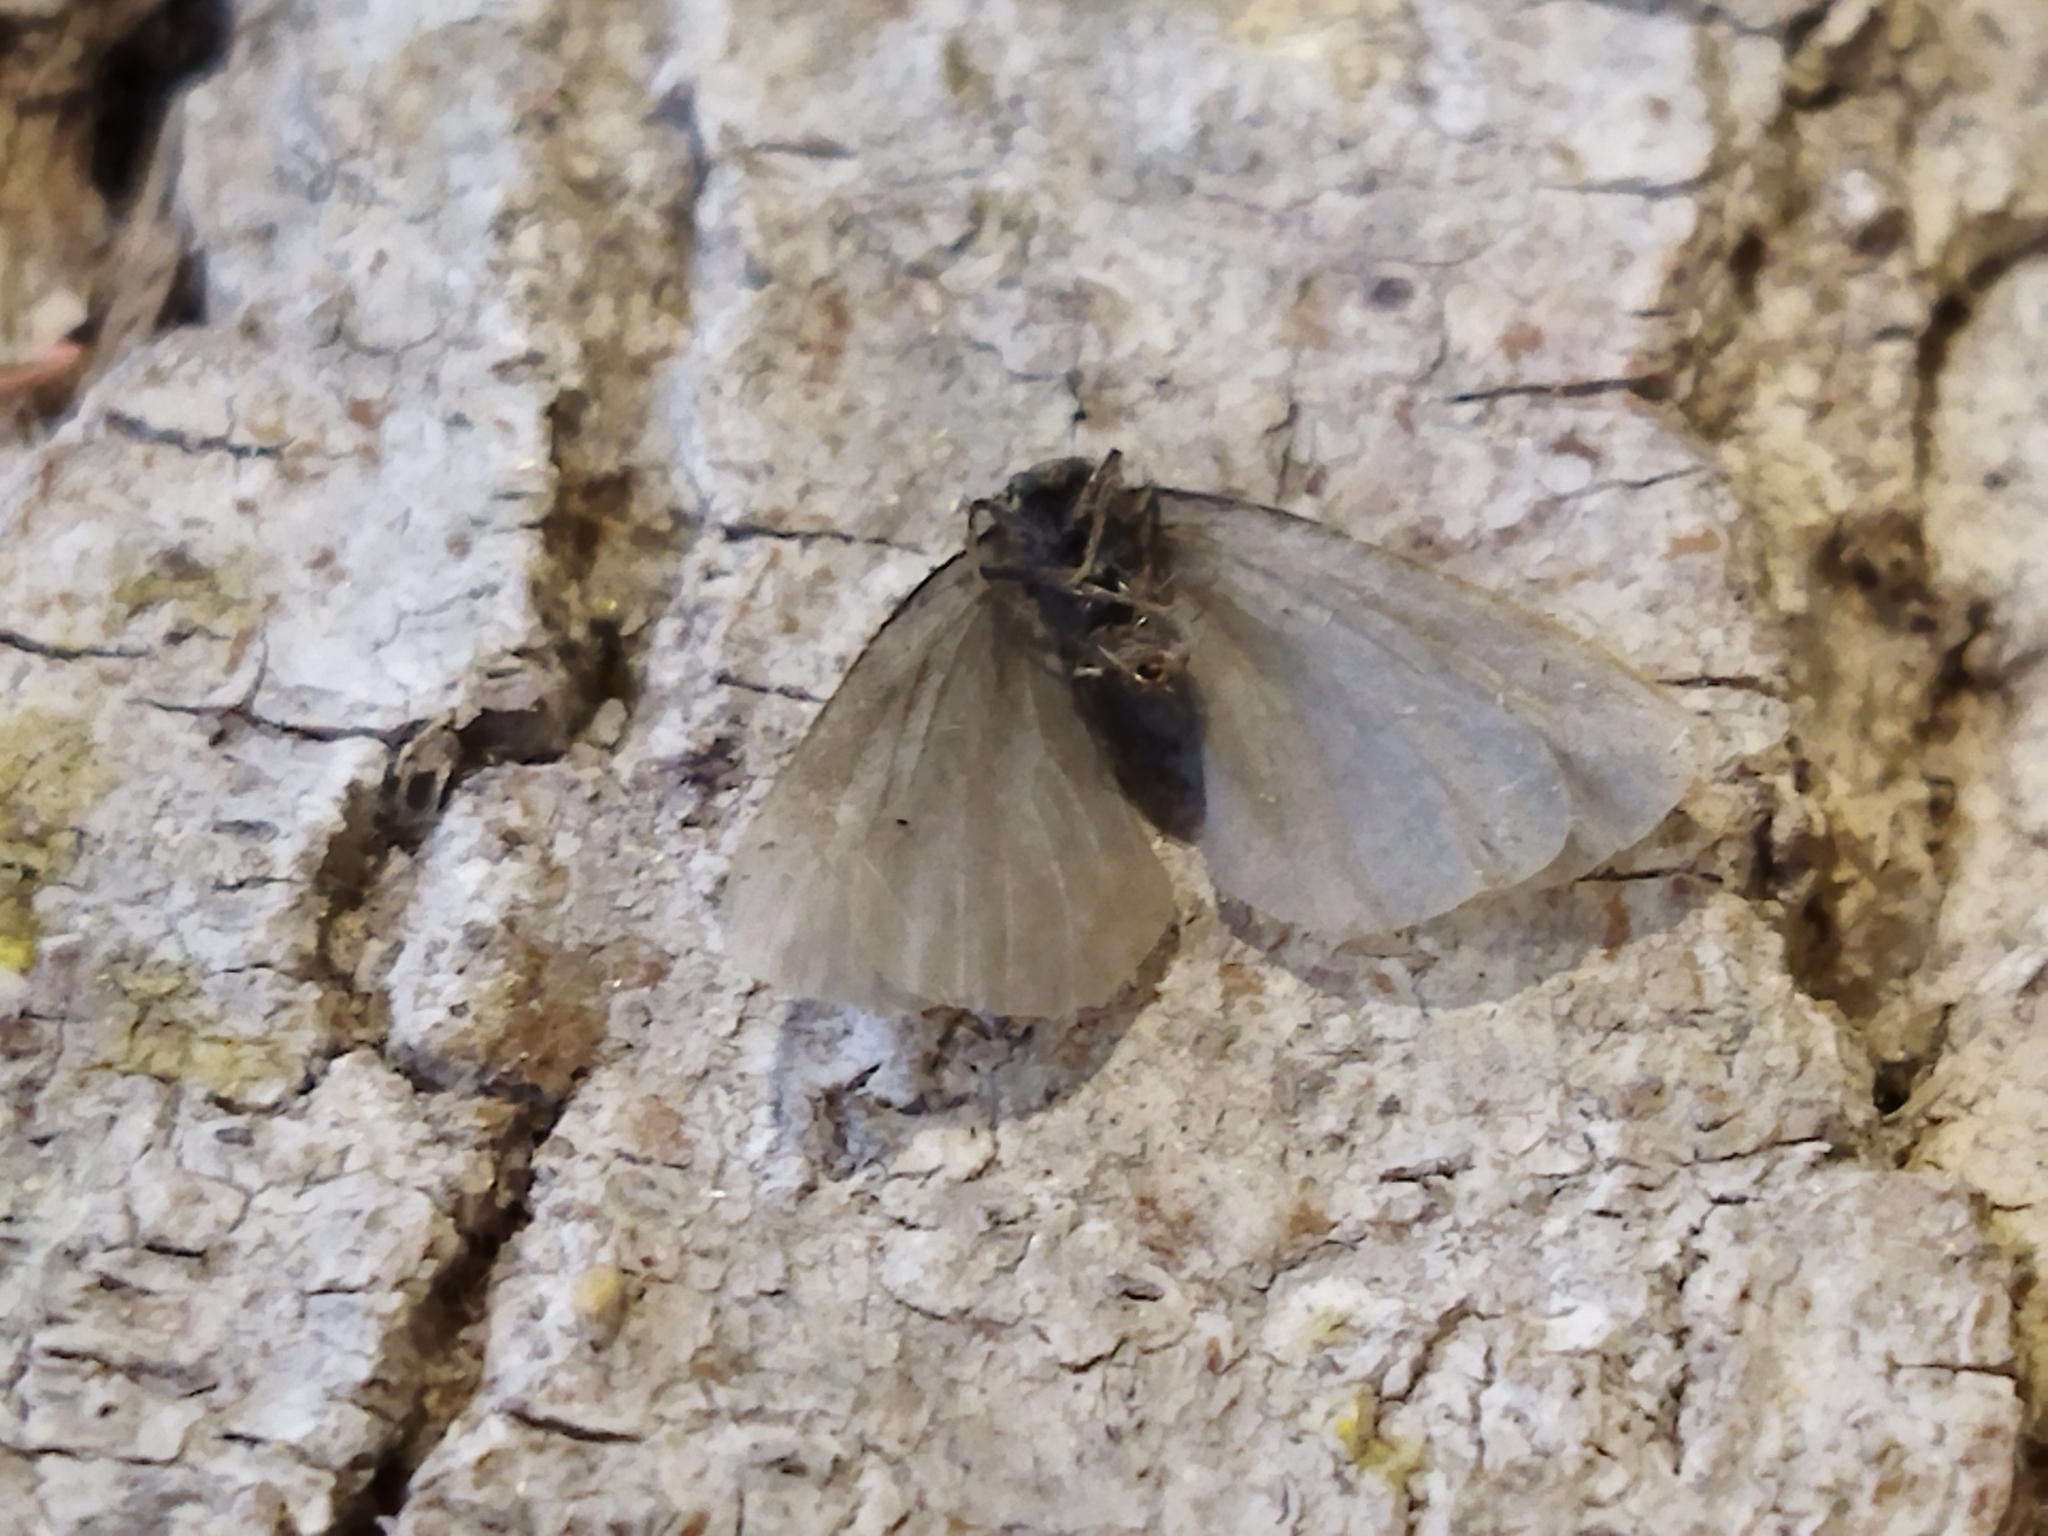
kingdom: Animalia
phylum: Arthropoda
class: Insecta
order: Lepidoptera
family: Psychidae
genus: Rebelia
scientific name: Rebelia perlucidella
